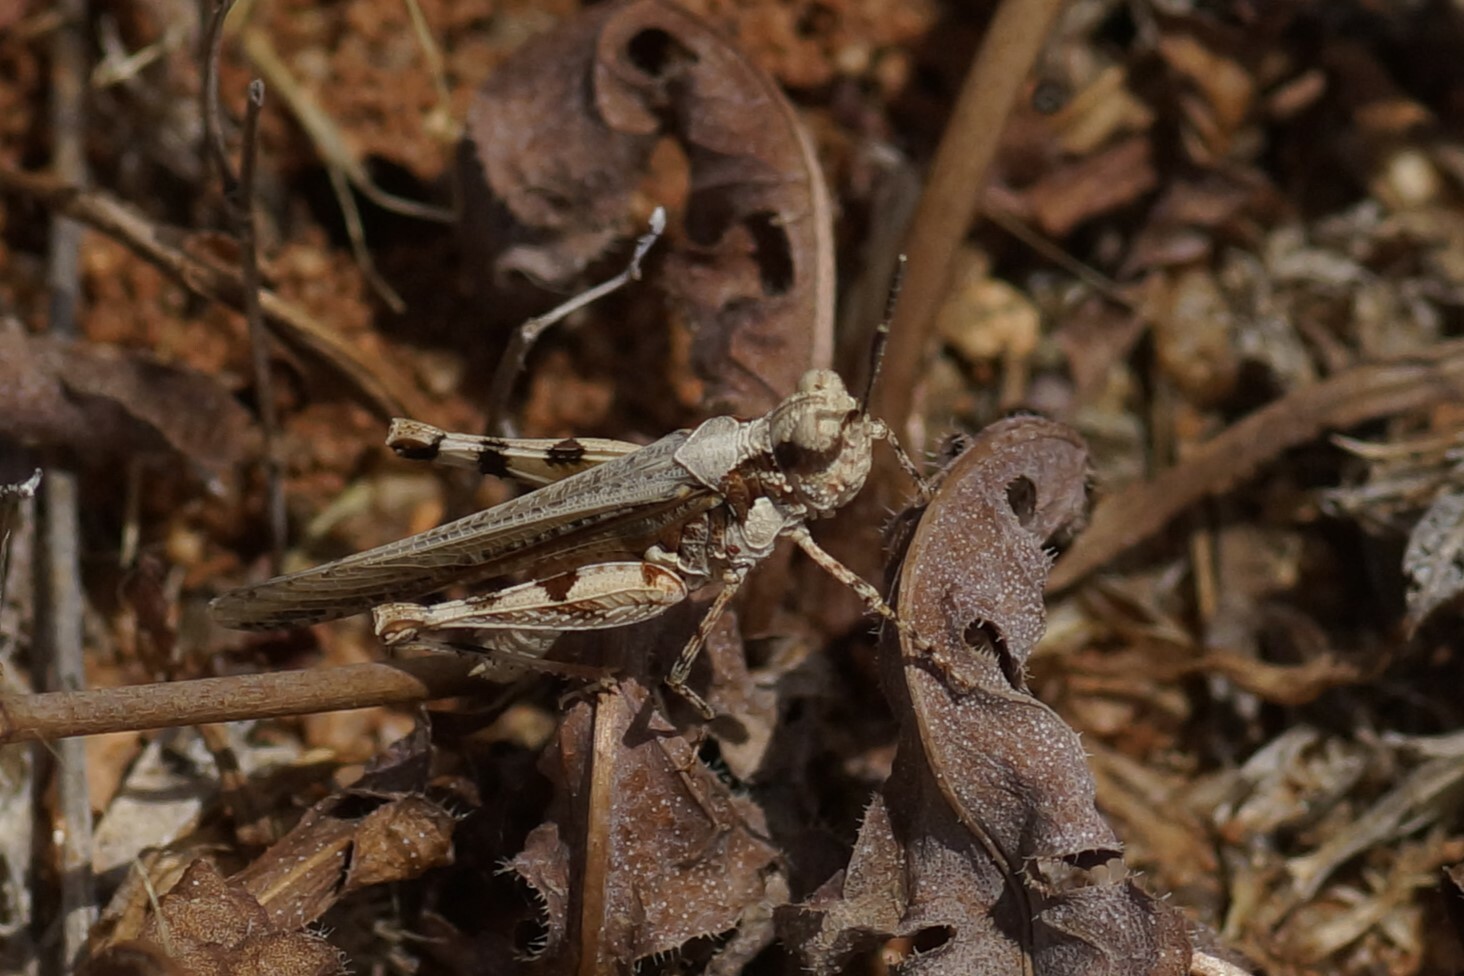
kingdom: Animalia
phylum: Arthropoda
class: Insecta
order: Orthoptera
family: Acrididae
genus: Pycnostictus
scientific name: Pycnostictus seriatus
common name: Common bandwing
